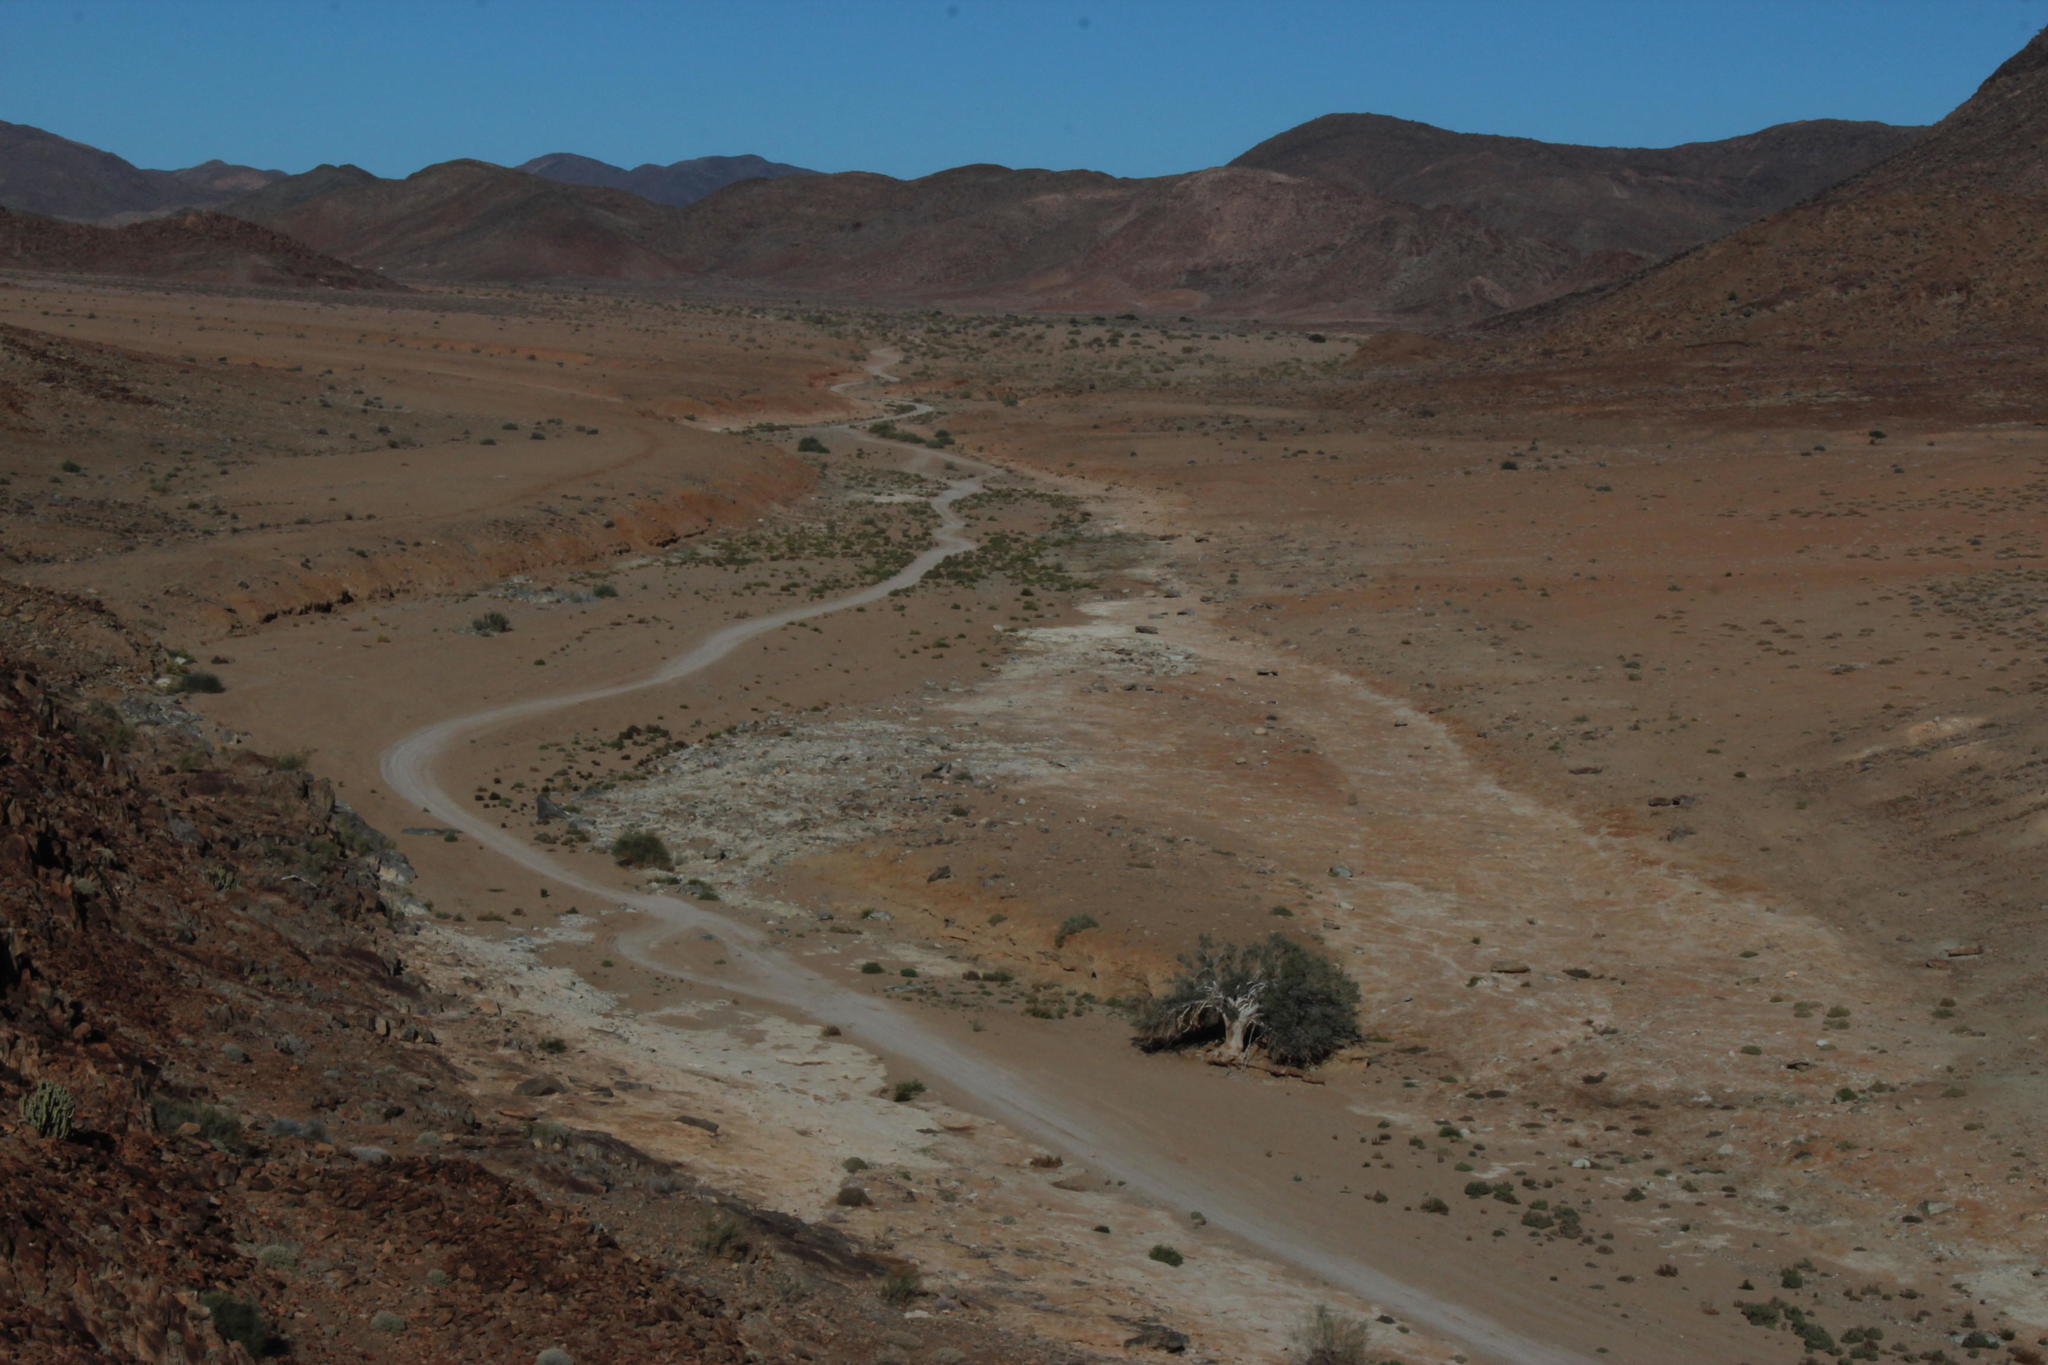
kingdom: Plantae
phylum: Tracheophyta
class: Magnoliopsida
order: Brassicales
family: Capparaceae
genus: Boscia
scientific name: Boscia albitrunca
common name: Caper bush
